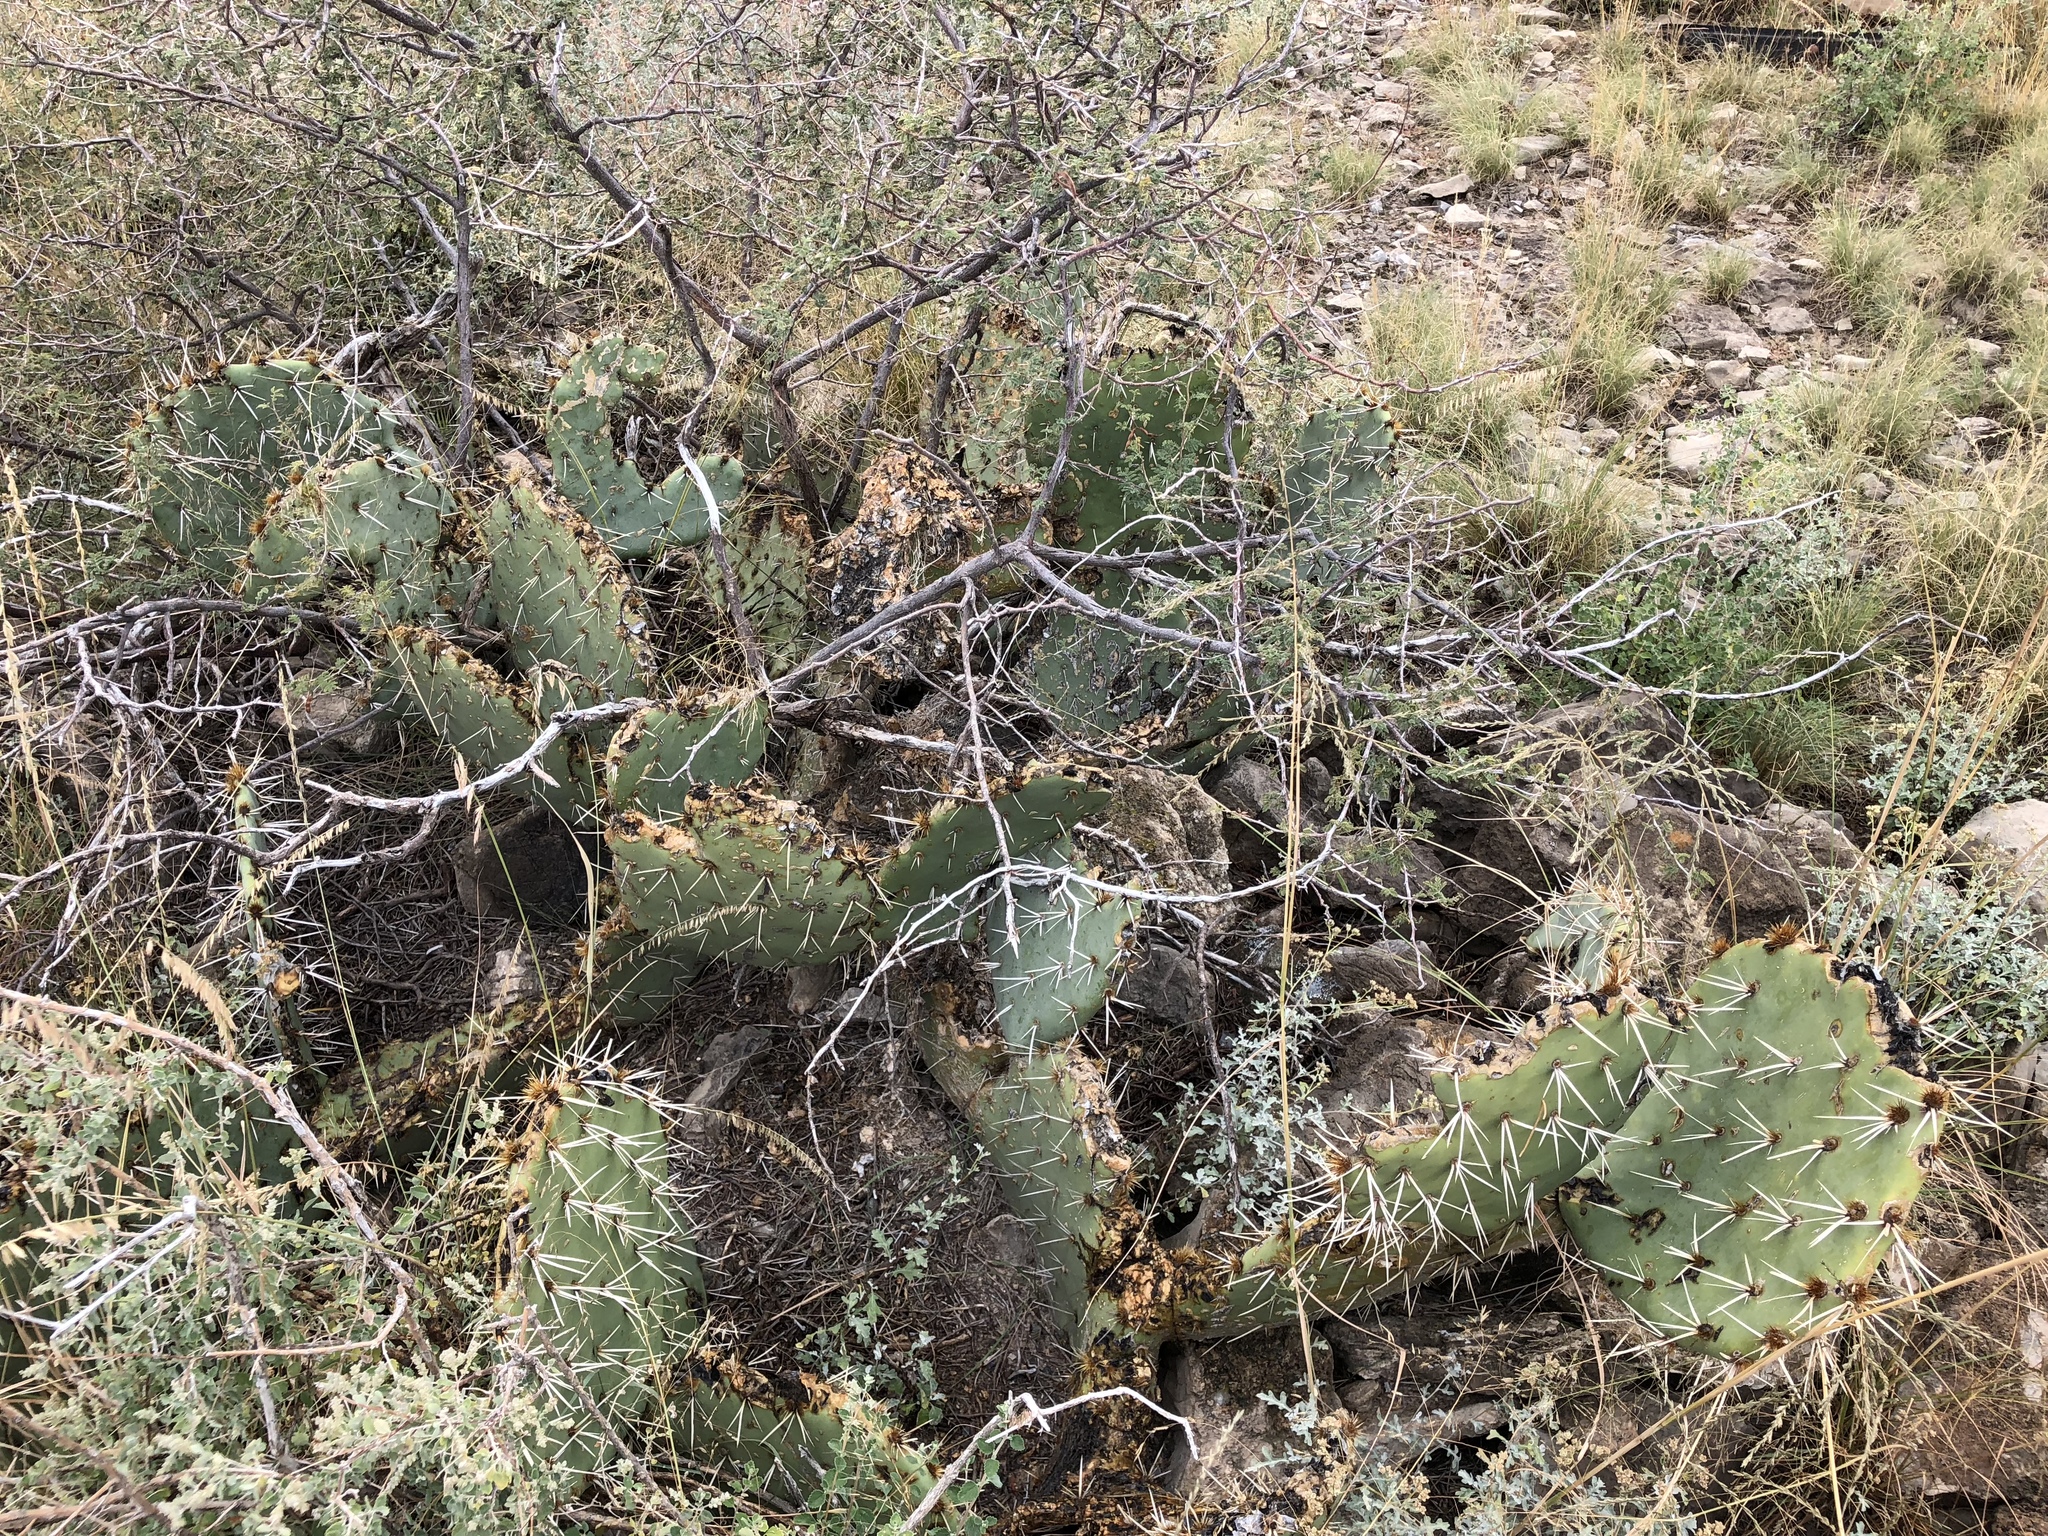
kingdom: Plantae
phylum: Tracheophyta
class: Magnoliopsida
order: Caryophyllales
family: Cactaceae
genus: Opuntia
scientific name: Opuntia engelmannii
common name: Cactus-apple
